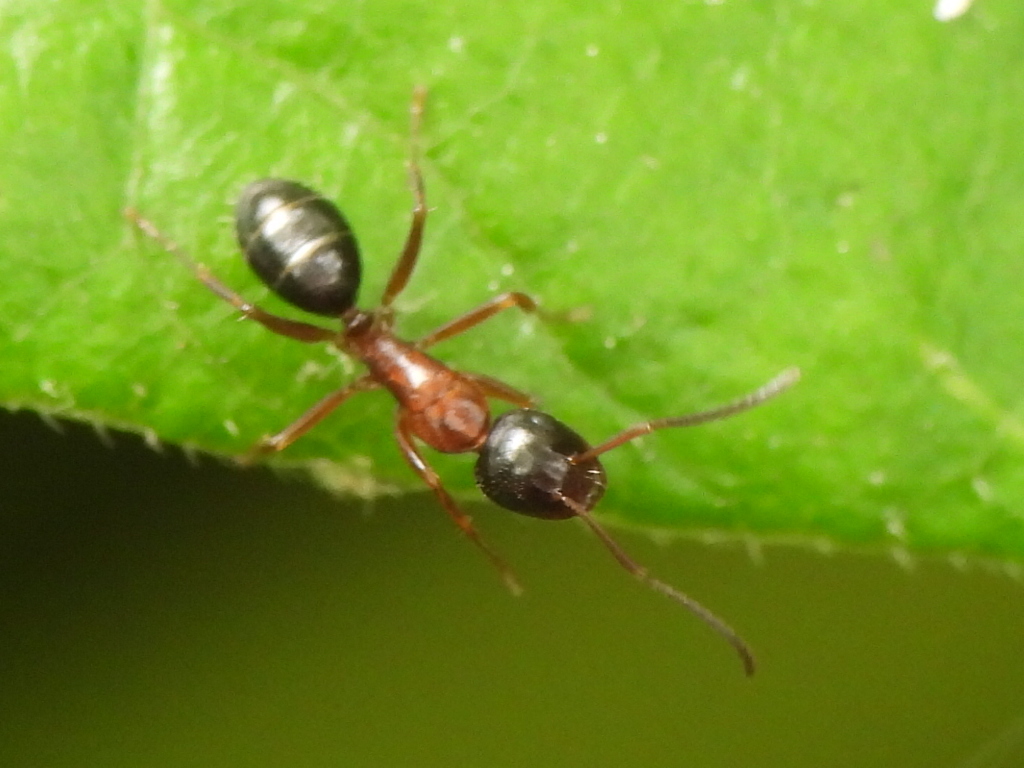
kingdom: Animalia
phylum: Arthropoda
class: Insecta
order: Hymenoptera
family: Formicidae
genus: Camponotus
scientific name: Camponotus nearcticus
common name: Smaller carpenter ant
